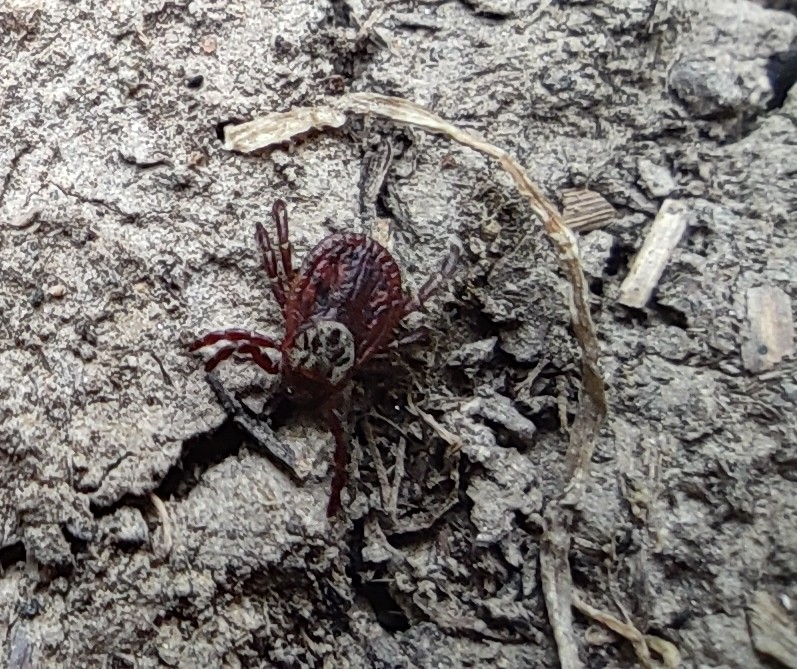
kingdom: Animalia
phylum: Arthropoda
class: Arachnida
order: Ixodida
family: Ixodidae
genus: Dermacentor
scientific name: Dermacentor
